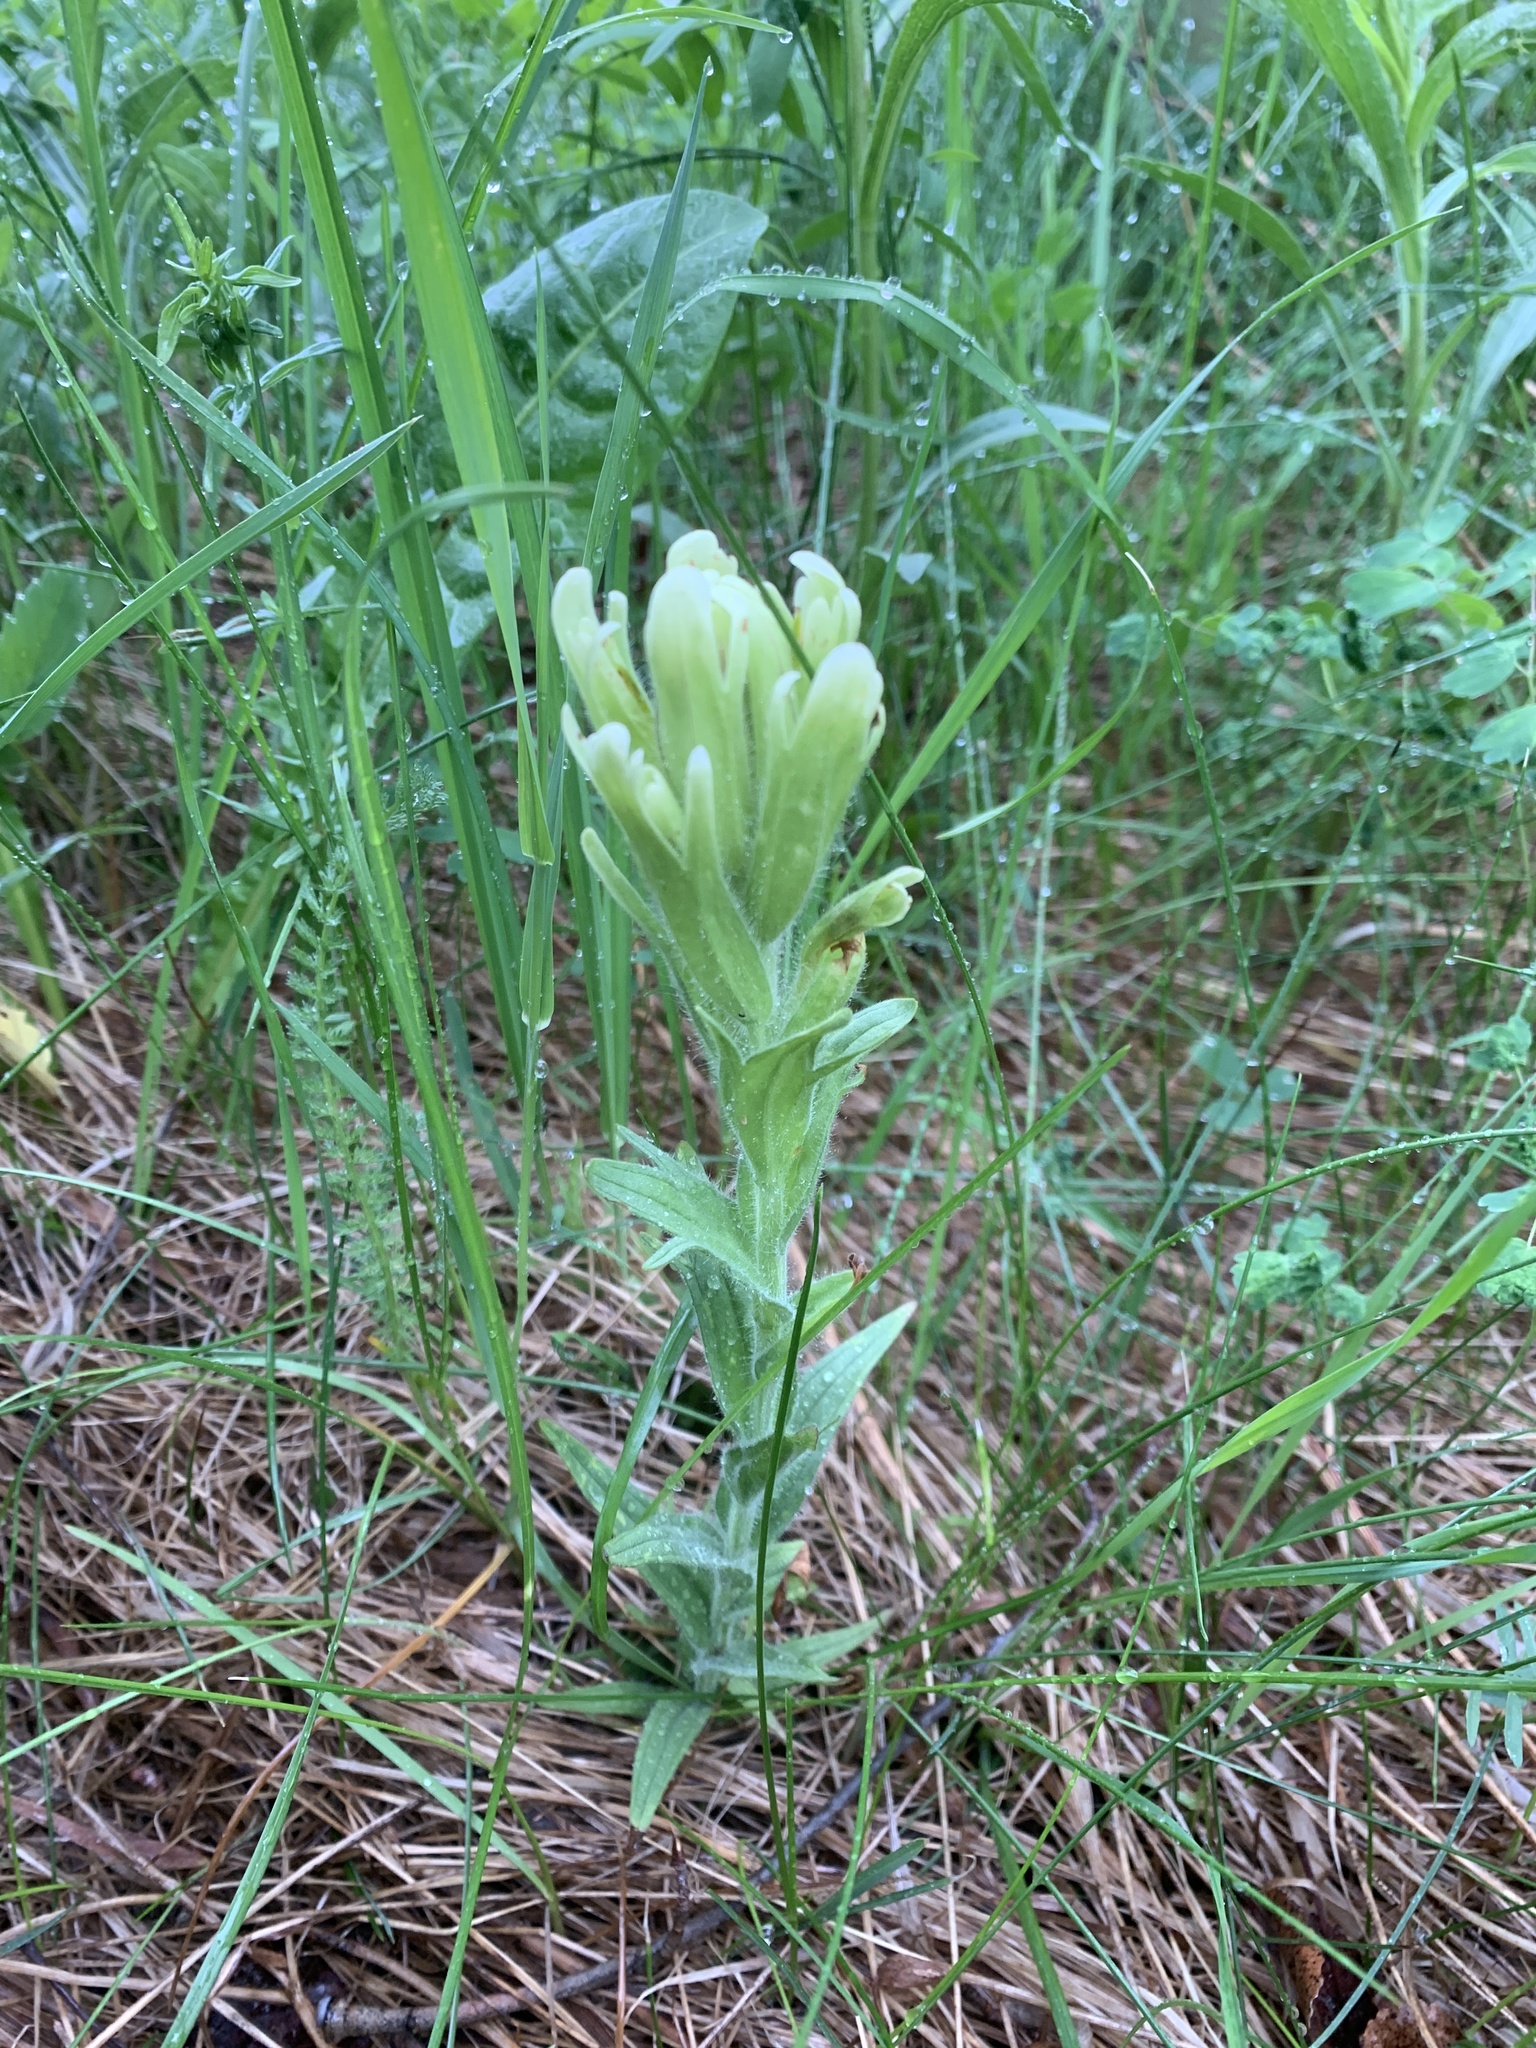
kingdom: Plantae
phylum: Tracheophyta
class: Magnoliopsida
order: Lamiales
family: Orobanchaceae
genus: Castilleja
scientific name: Castilleja septentrionalis
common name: Northeastern paintbrush
